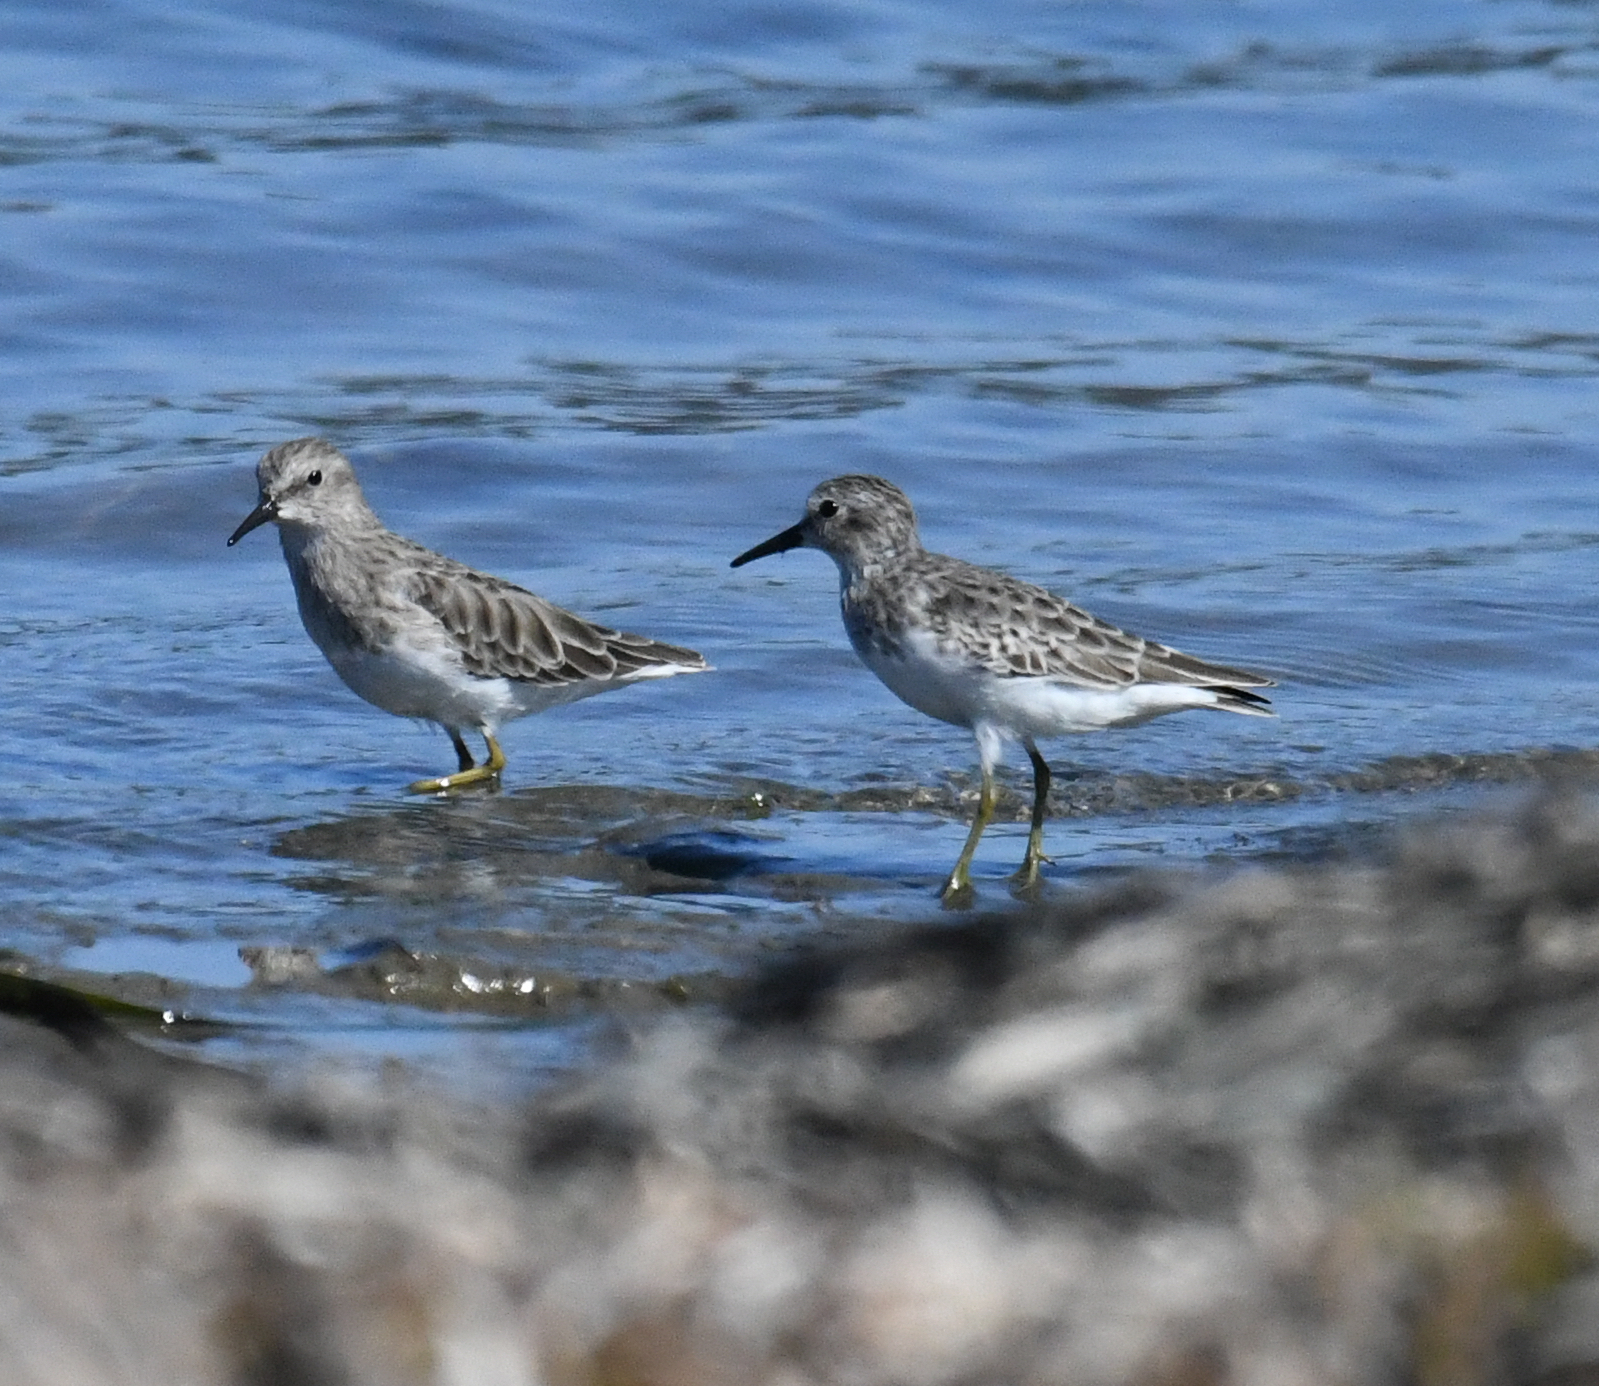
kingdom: Animalia
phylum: Chordata
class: Aves
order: Charadriiformes
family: Scolopacidae
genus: Calidris
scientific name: Calidris minutilla
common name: Least sandpiper
